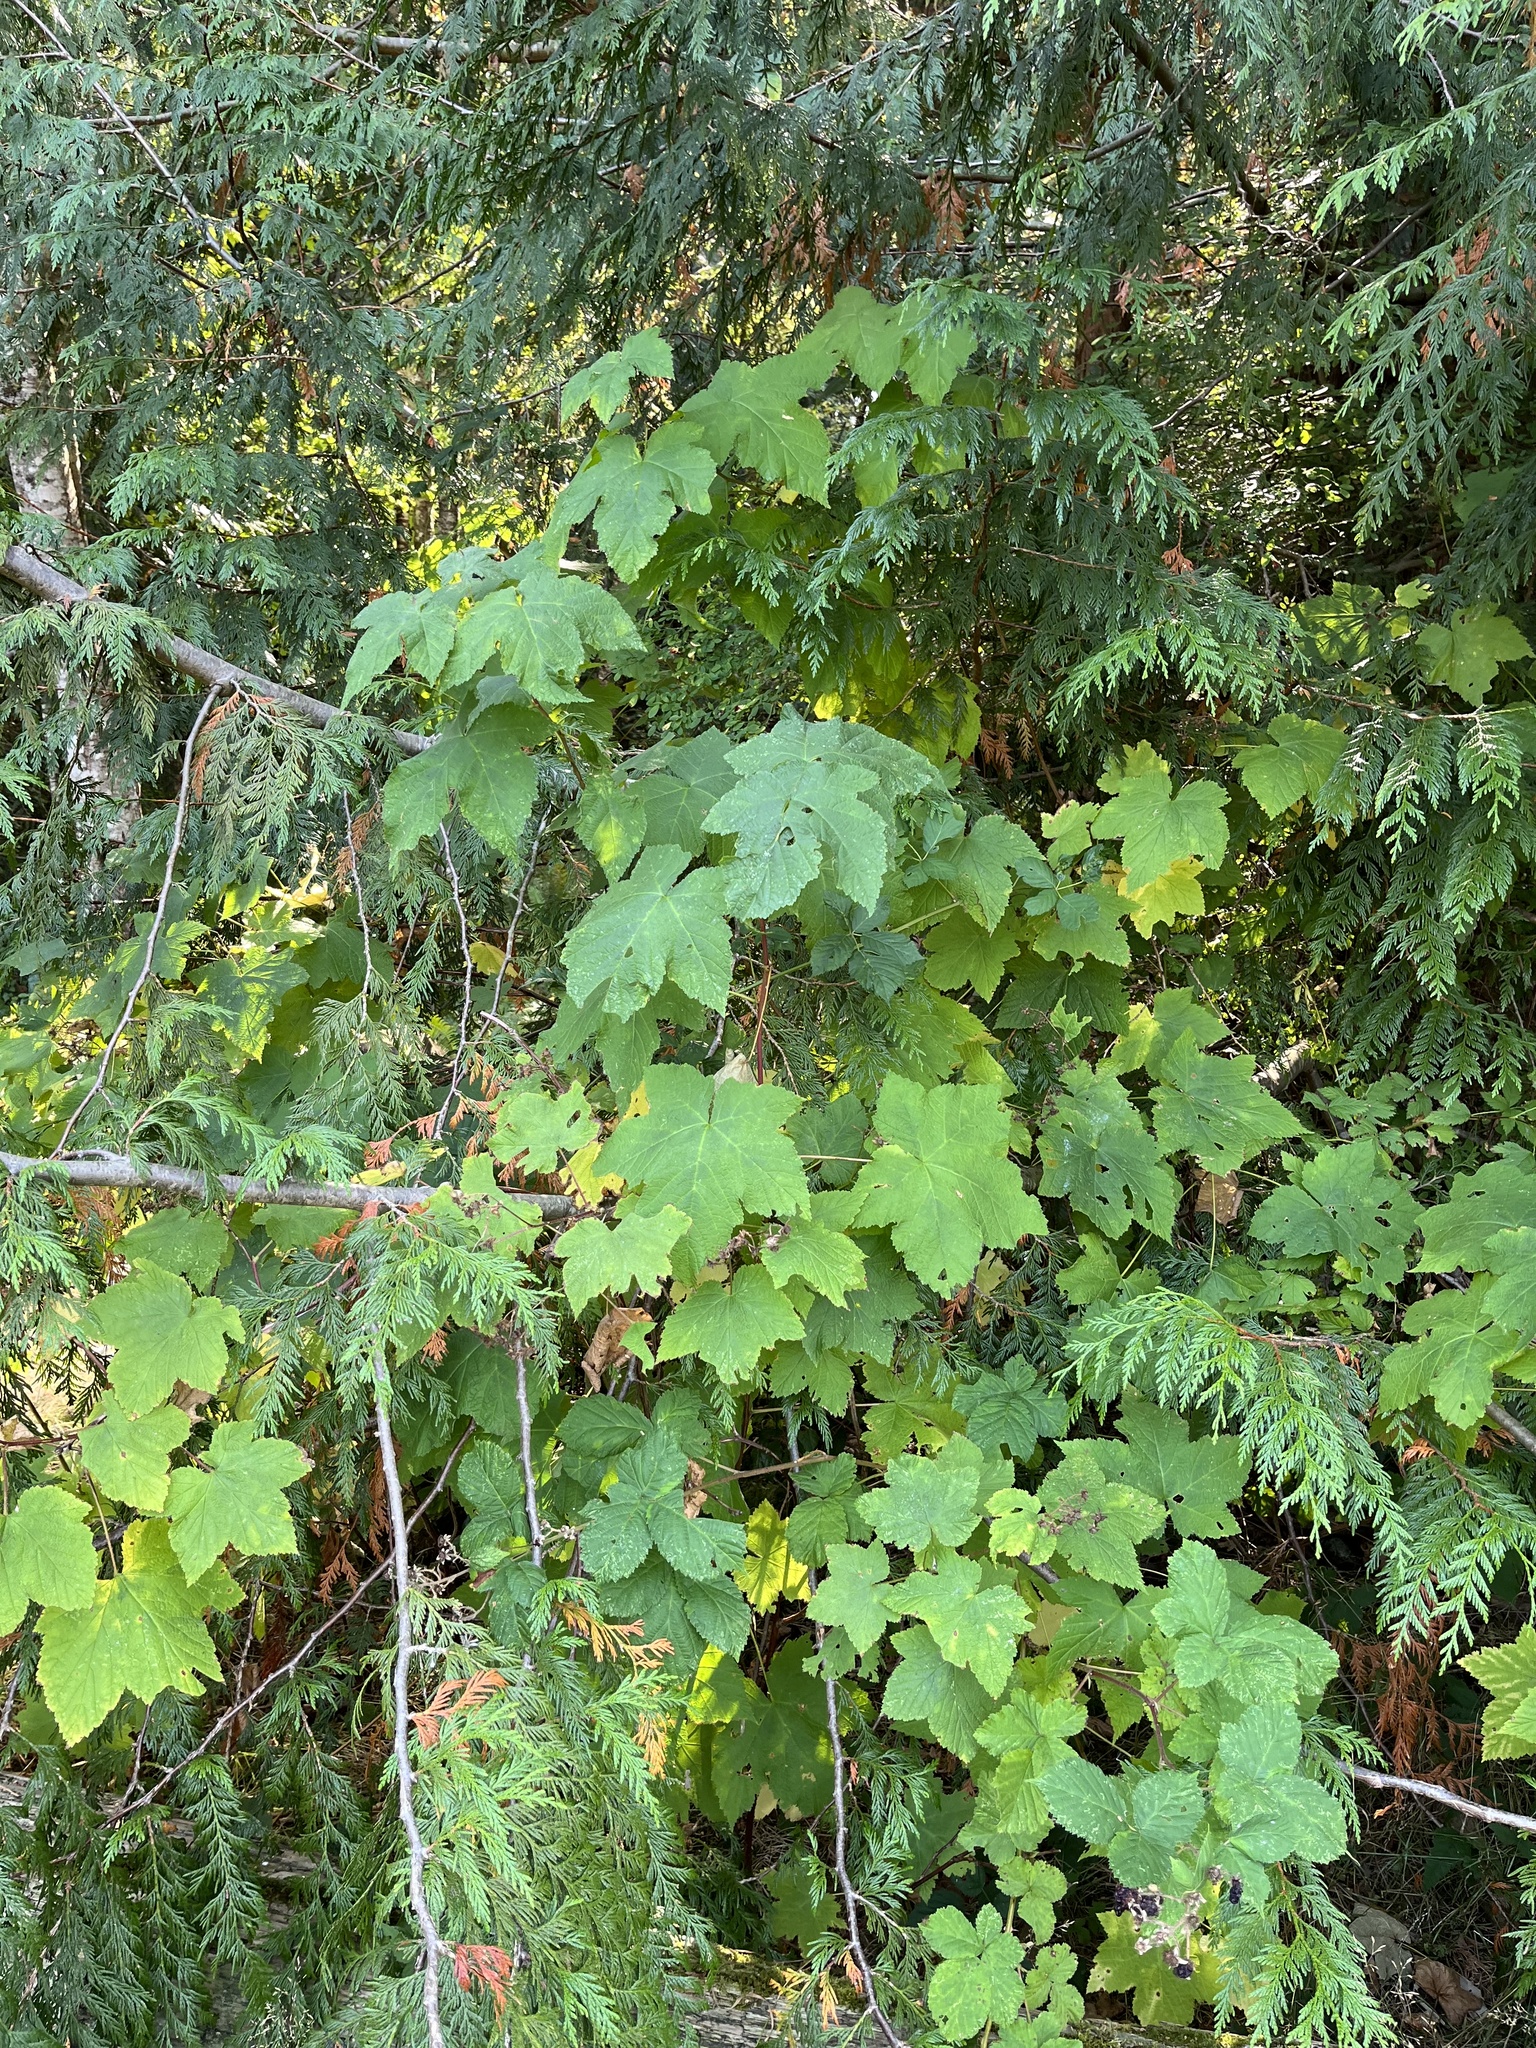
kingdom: Plantae
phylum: Tracheophyta
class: Magnoliopsida
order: Rosales
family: Rosaceae
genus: Rubus
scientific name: Rubus parviflorus
